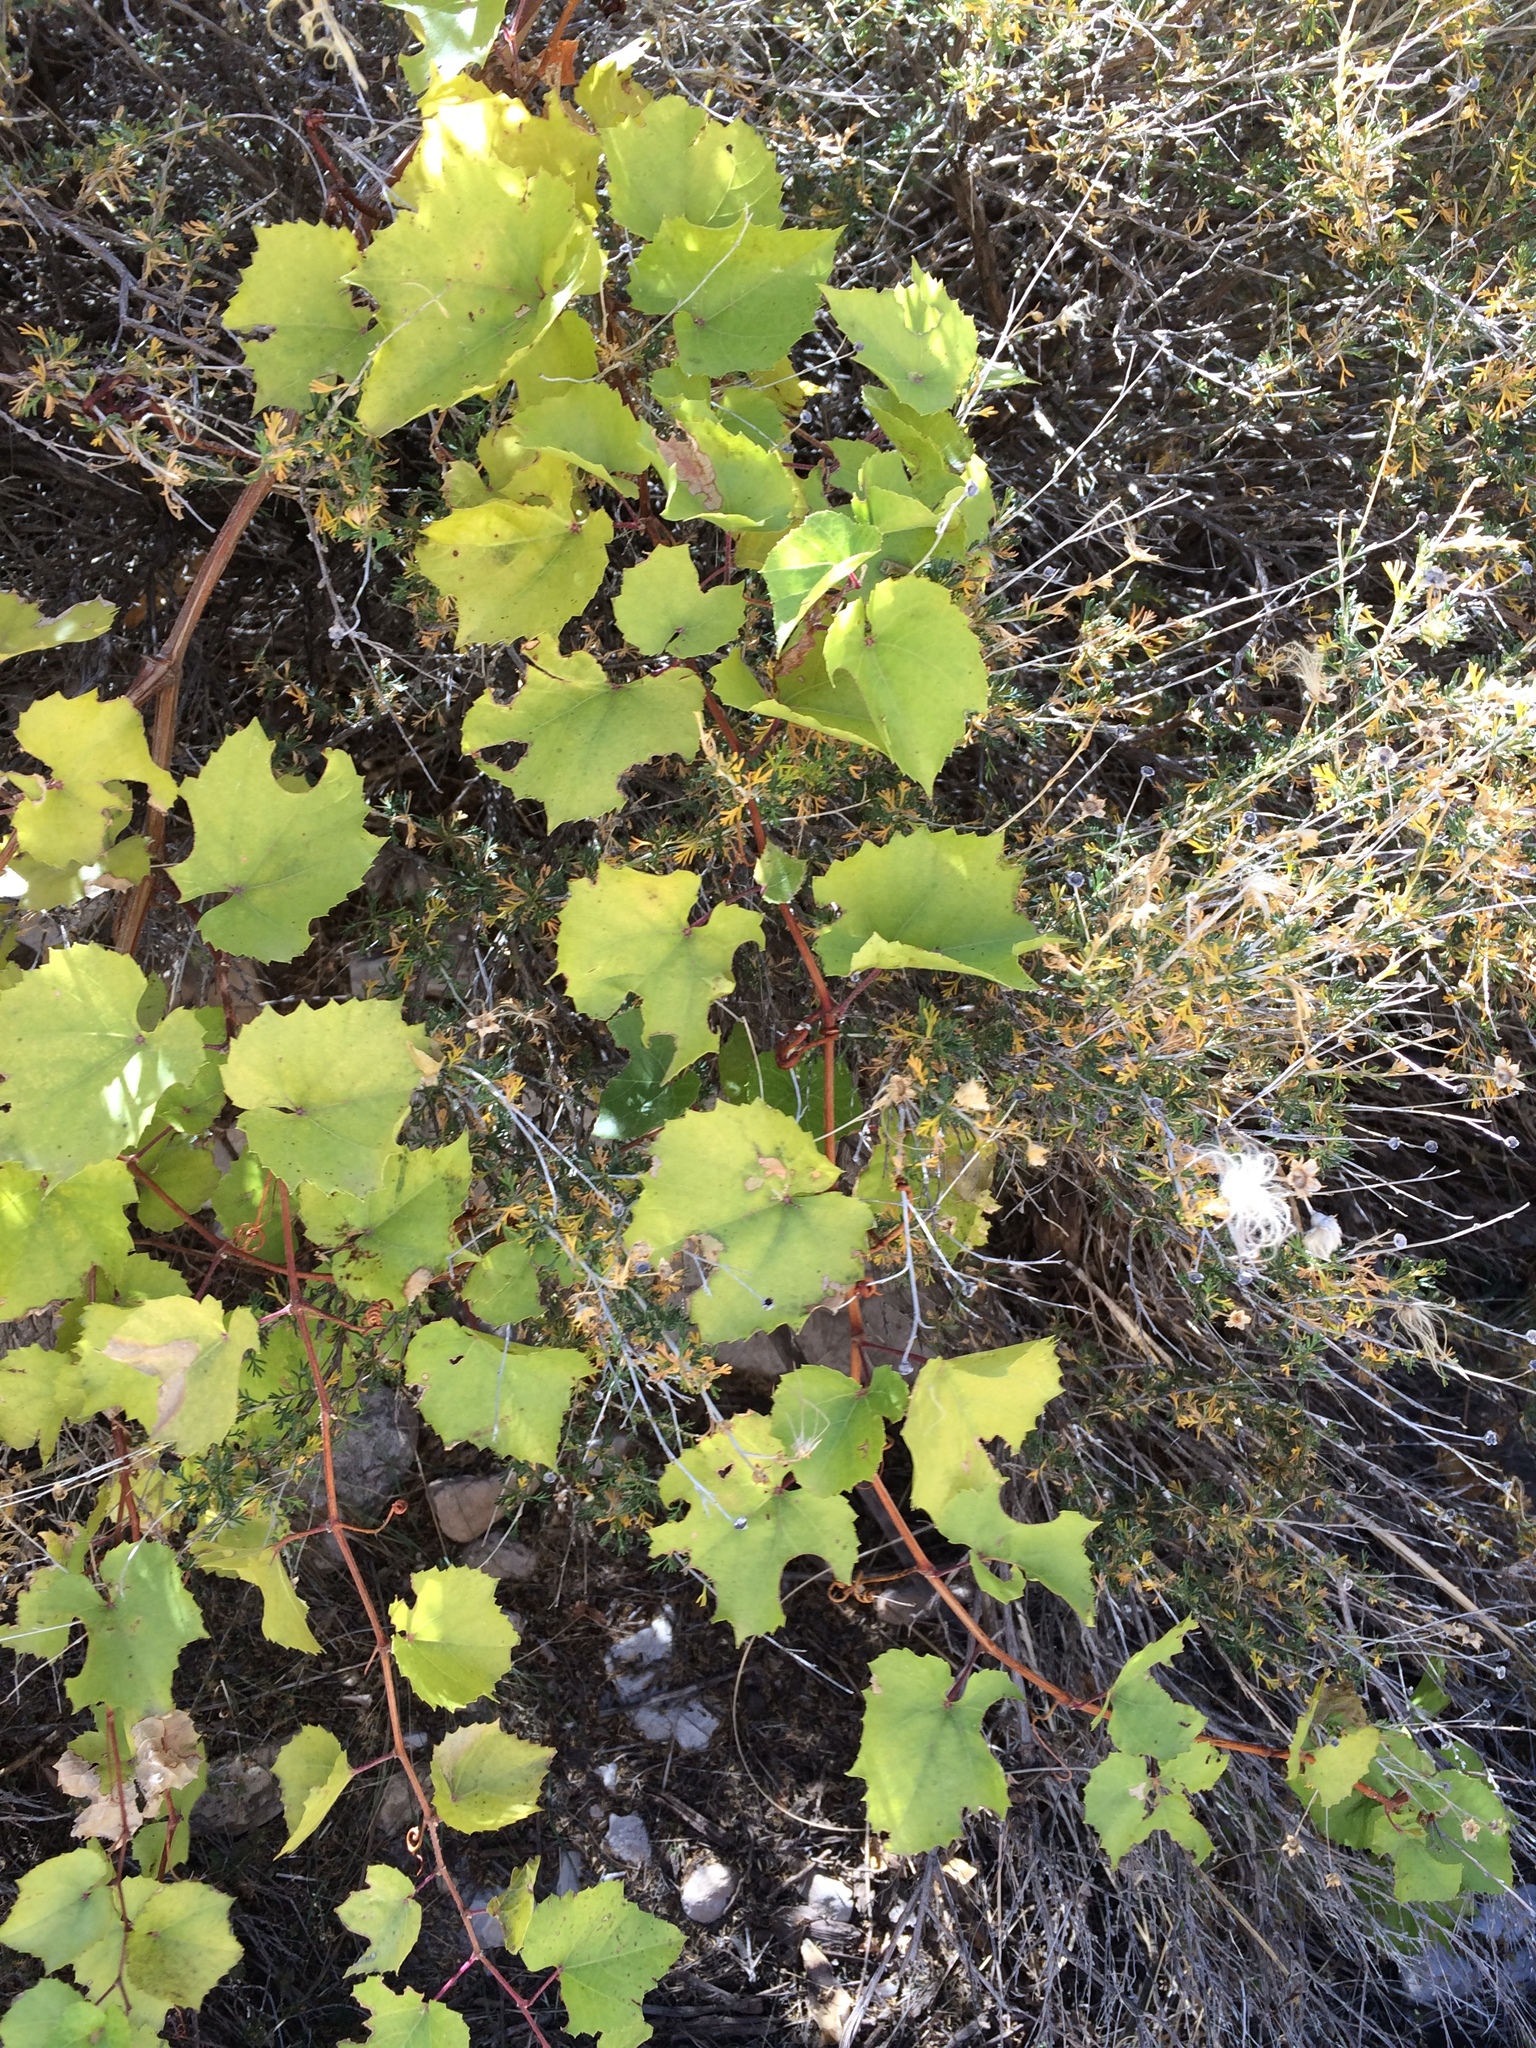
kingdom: Plantae
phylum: Tracheophyta
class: Magnoliopsida
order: Vitales
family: Vitaceae
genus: Vitis
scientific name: Vitis arizonica
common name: Canyon grape
